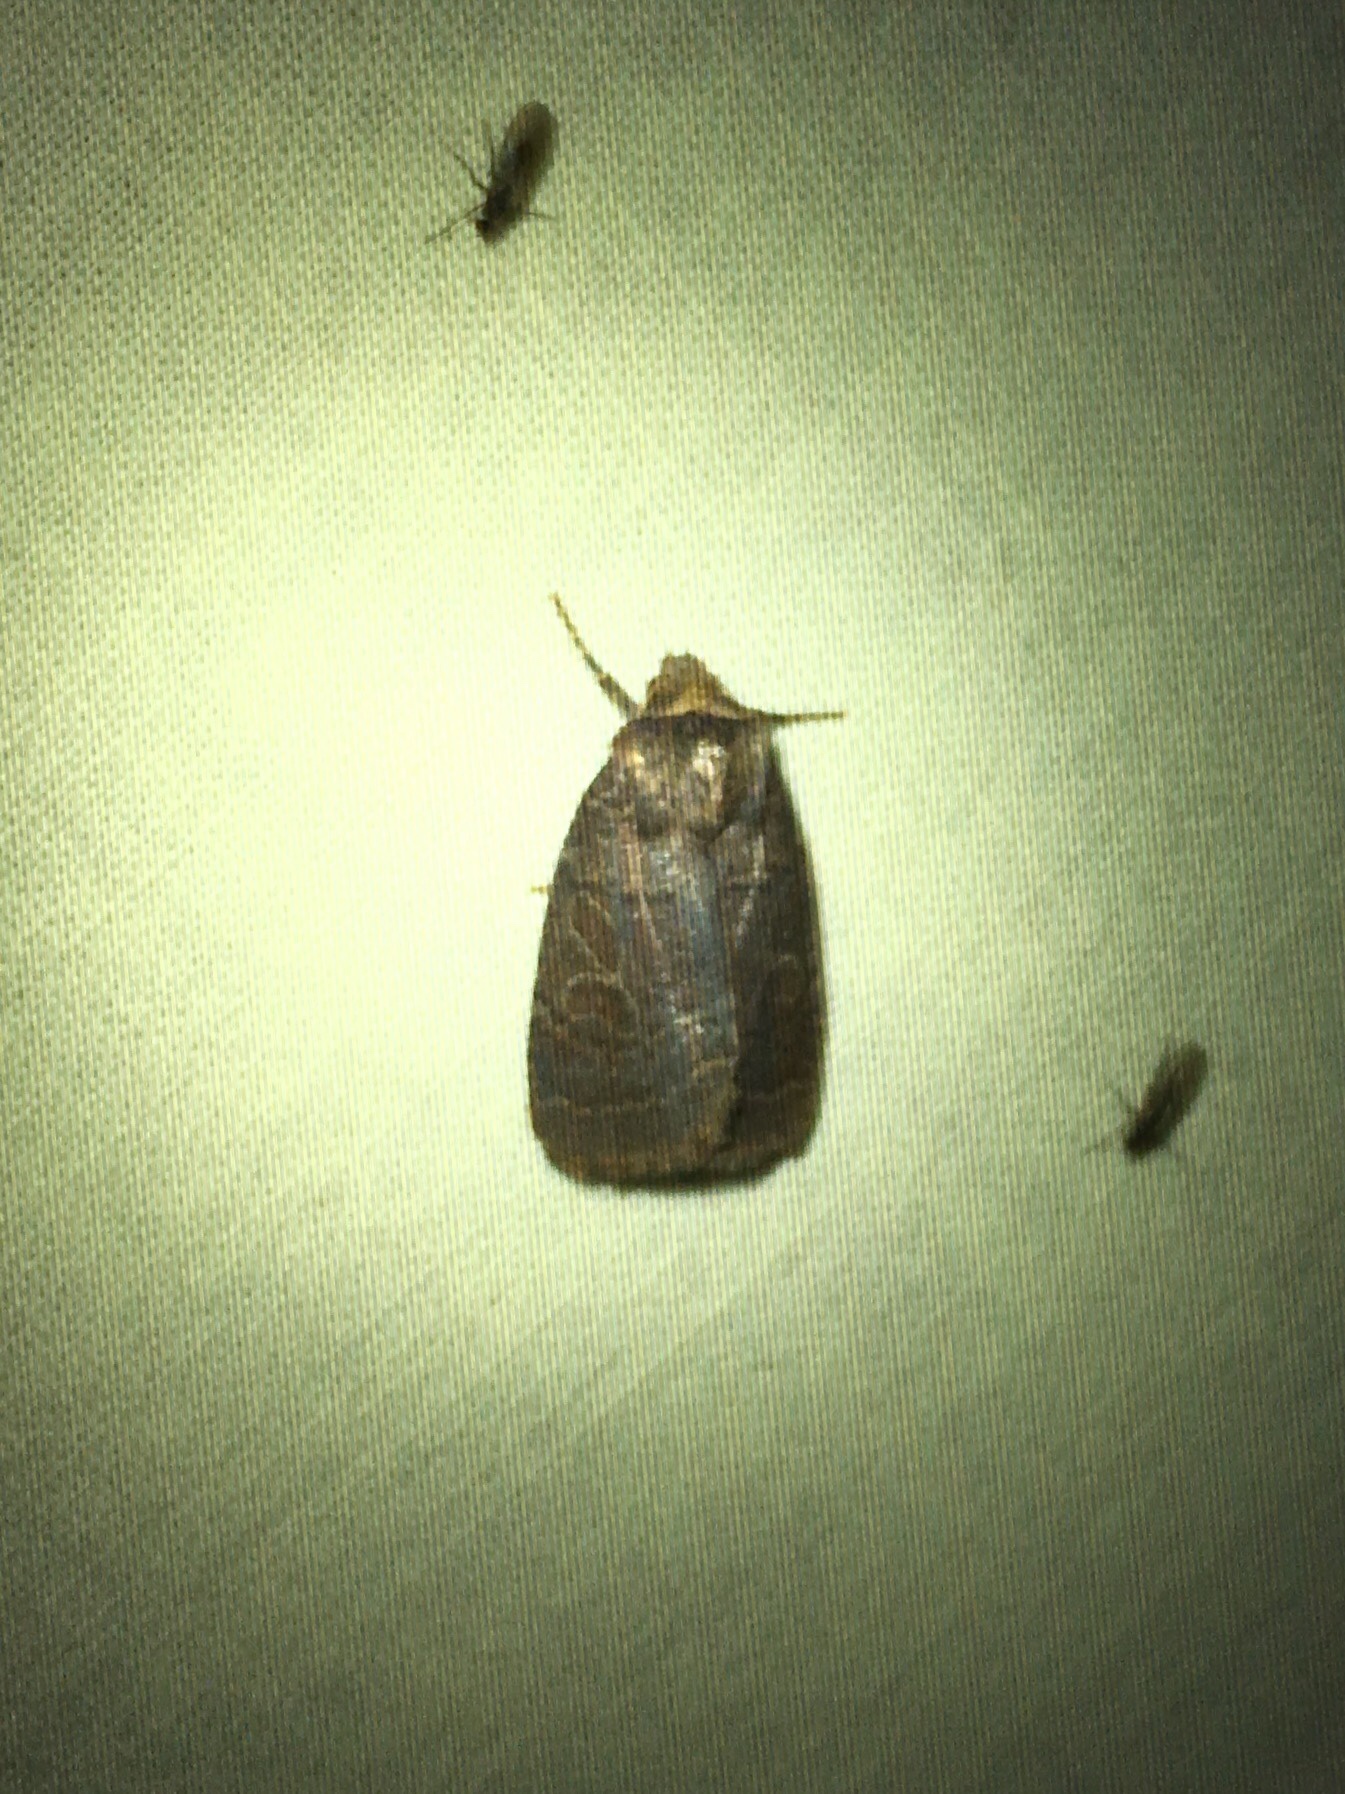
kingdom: Animalia
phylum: Arthropoda
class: Insecta
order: Lepidoptera
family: Noctuidae
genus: Orthodes
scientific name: Orthodes majuscula
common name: Rustic quaker
